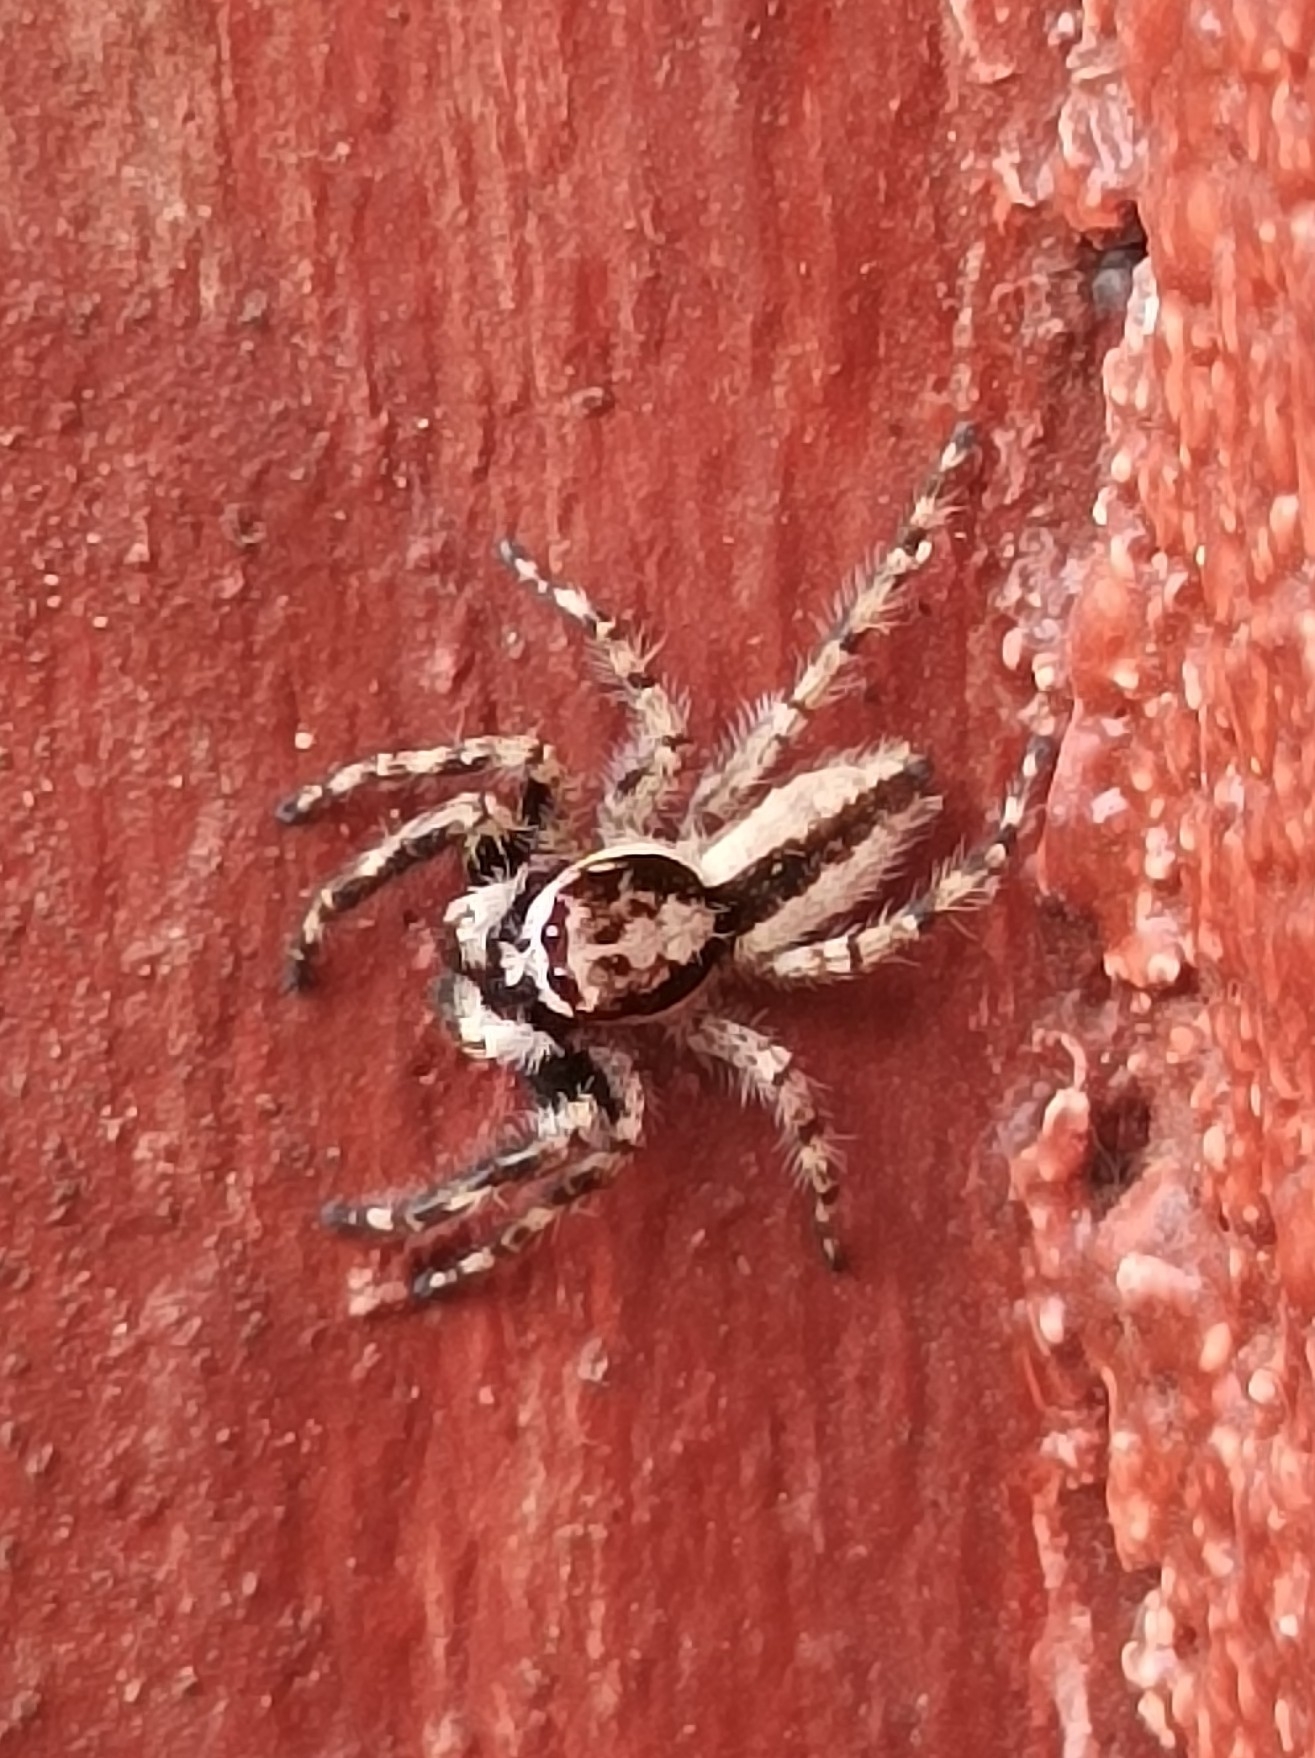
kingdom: Animalia
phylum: Arthropoda
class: Arachnida
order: Araneae
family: Salticidae
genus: Menemerus
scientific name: Menemerus bivittatus
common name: Gray wall jumper
